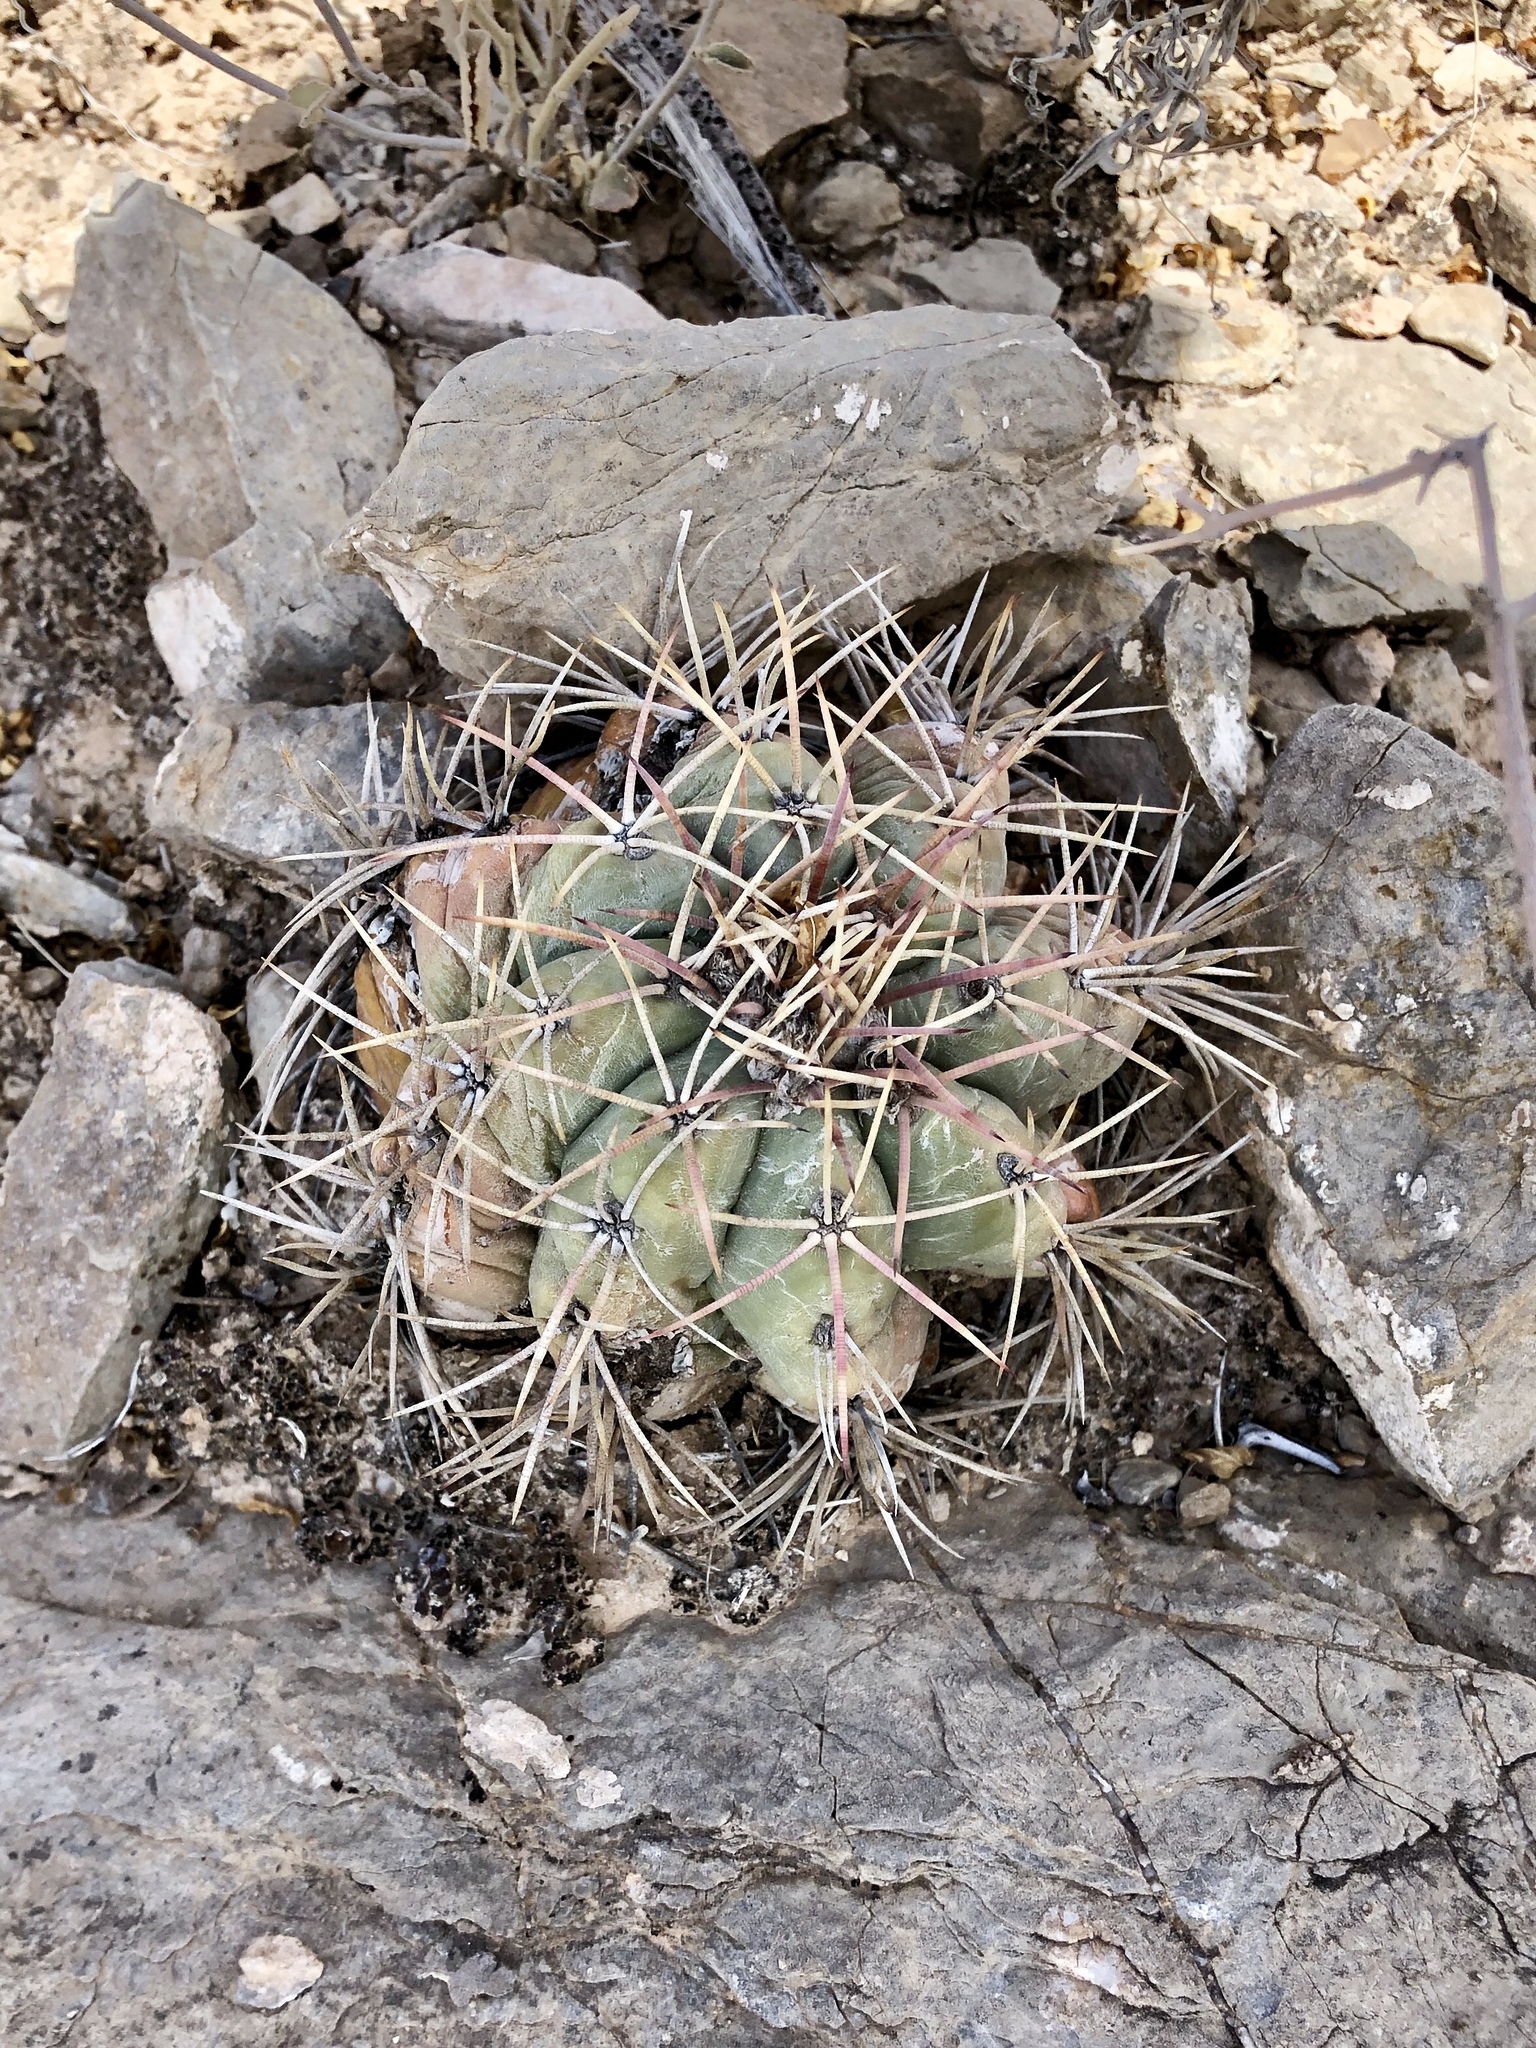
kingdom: Plantae
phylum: Tracheophyta
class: Magnoliopsida
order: Caryophyllales
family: Cactaceae
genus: Echinocactus
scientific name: Echinocactus horizonthalonius
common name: Devilshead
